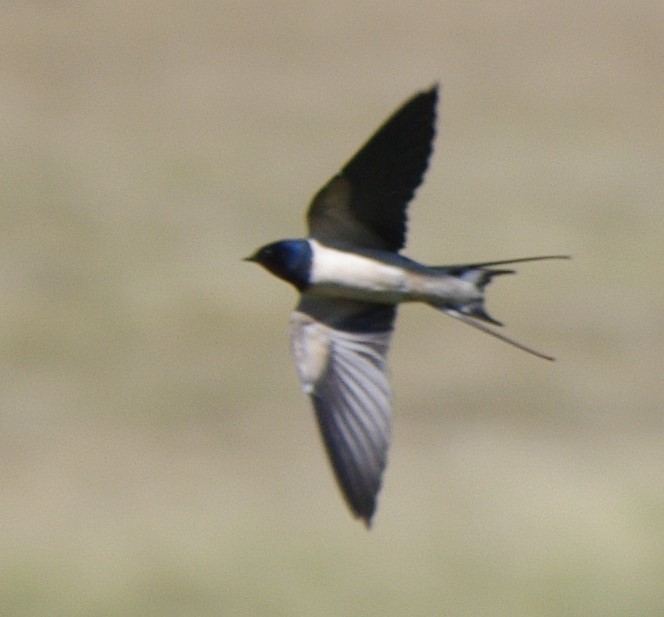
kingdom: Animalia
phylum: Chordata
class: Aves
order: Passeriformes
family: Hirundinidae
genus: Hirundo
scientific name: Hirundo rustica
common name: Barn swallow
